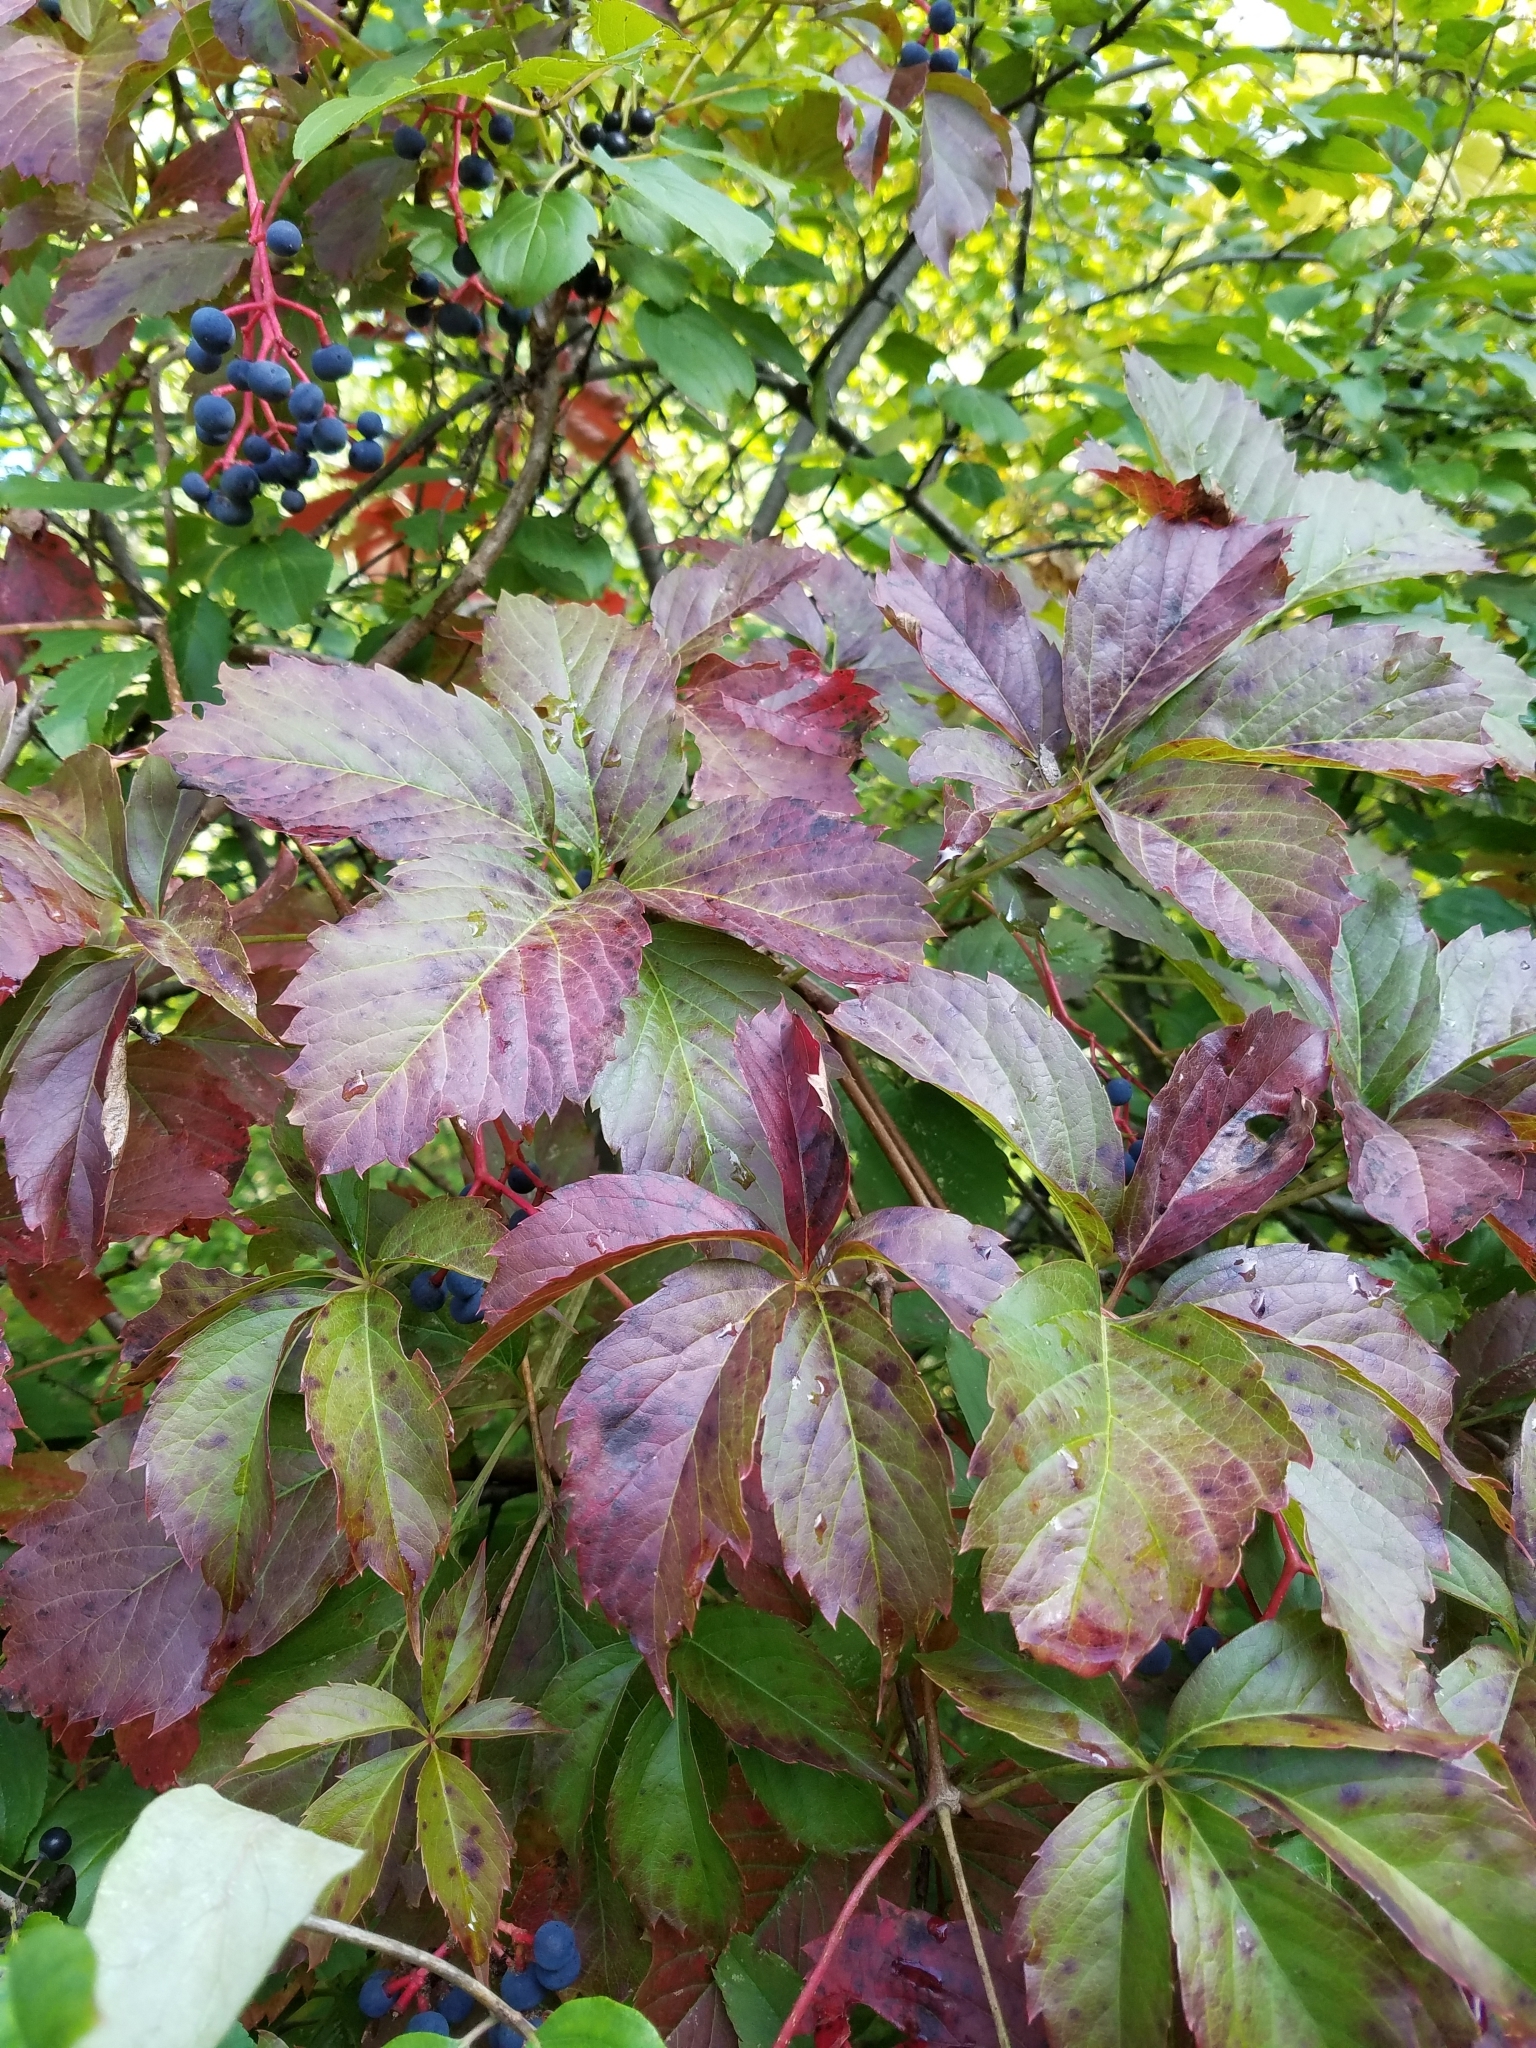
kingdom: Plantae
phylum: Tracheophyta
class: Magnoliopsida
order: Vitales
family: Vitaceae
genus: Parthenocissus
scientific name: Parthenocissus quinquefolia
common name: Virginia-creeper
